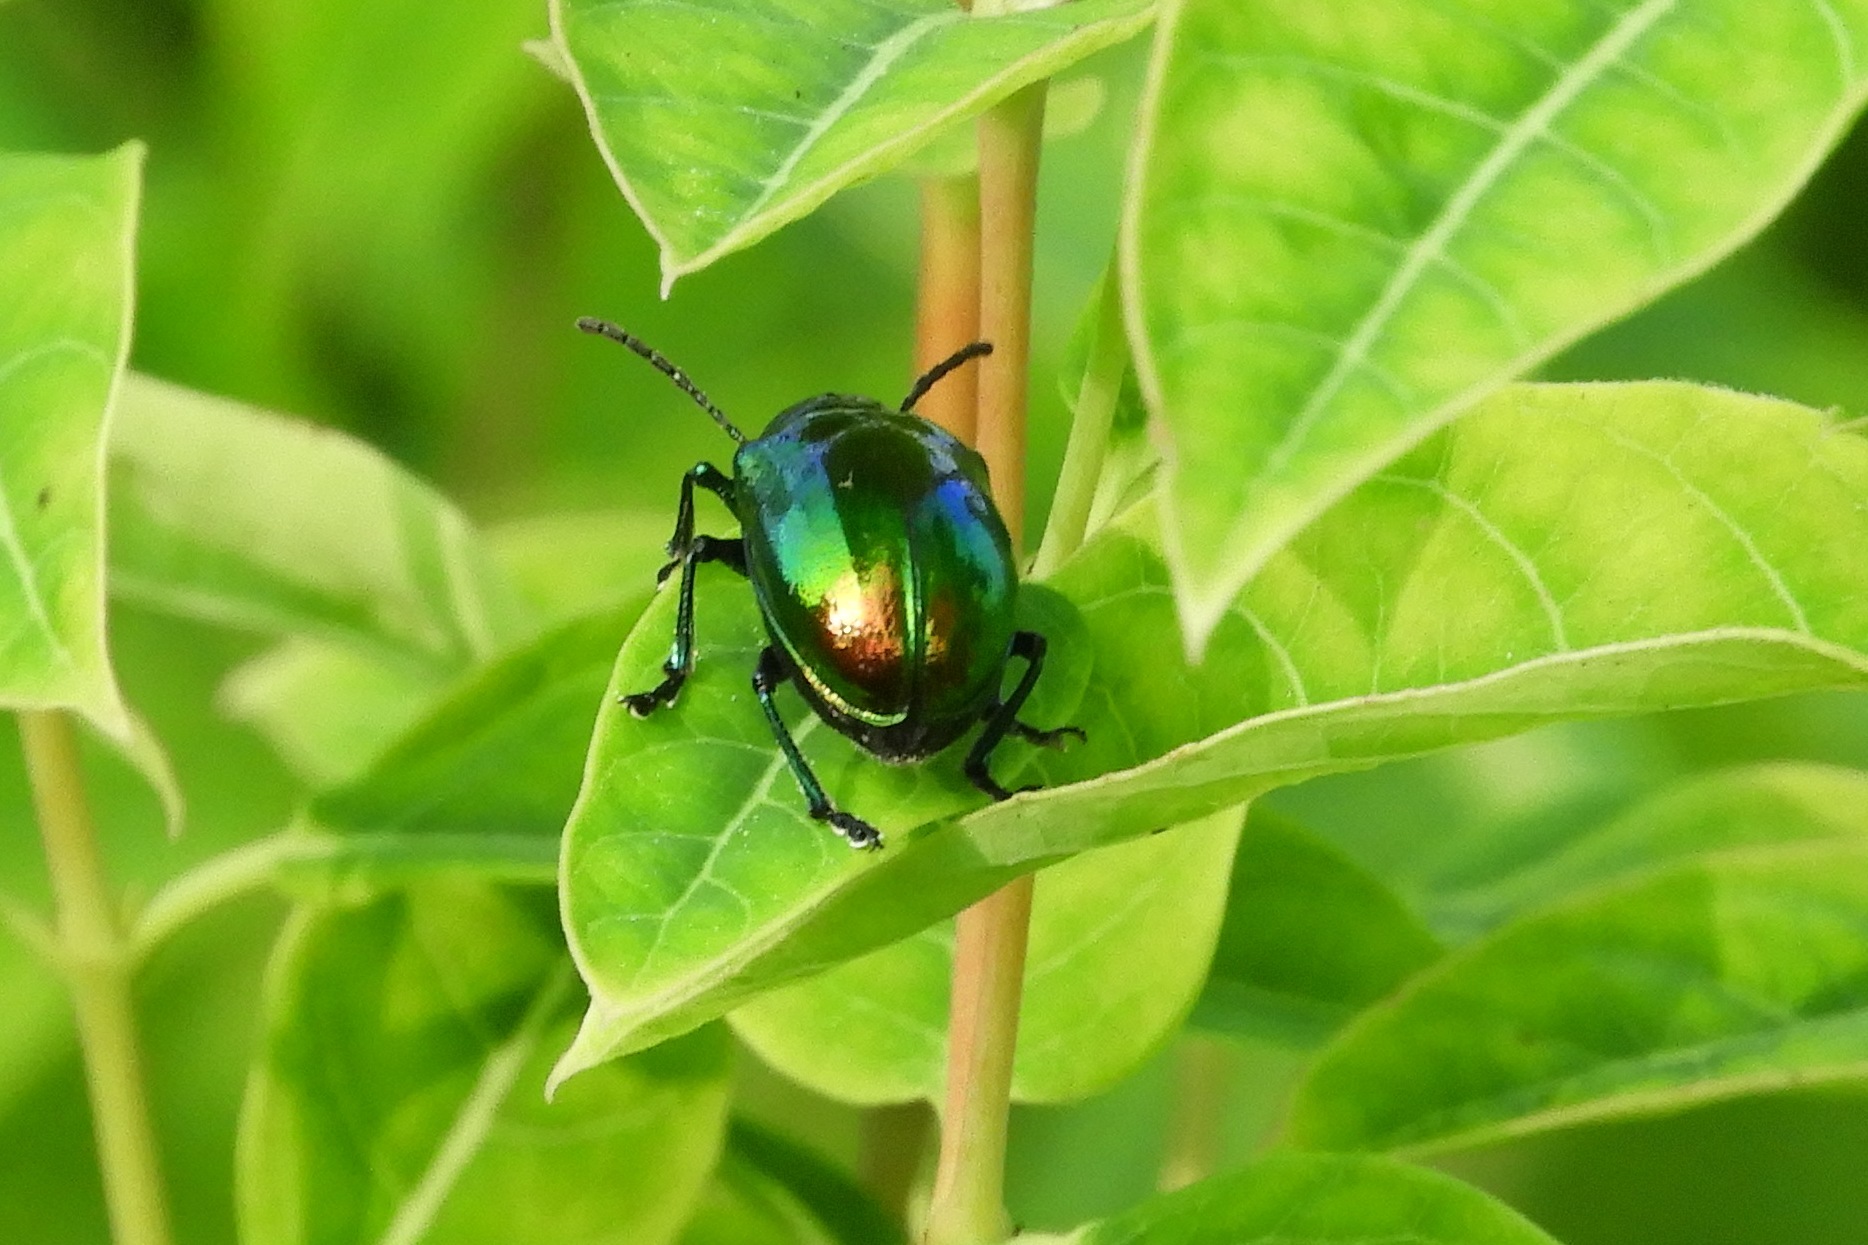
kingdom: Animalia
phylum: Arthropoda
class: Insecta
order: Coleoptera
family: Chrysomelidae
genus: Chrysochus
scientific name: Chrysochus auratus
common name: Dogbane leaf beetle
